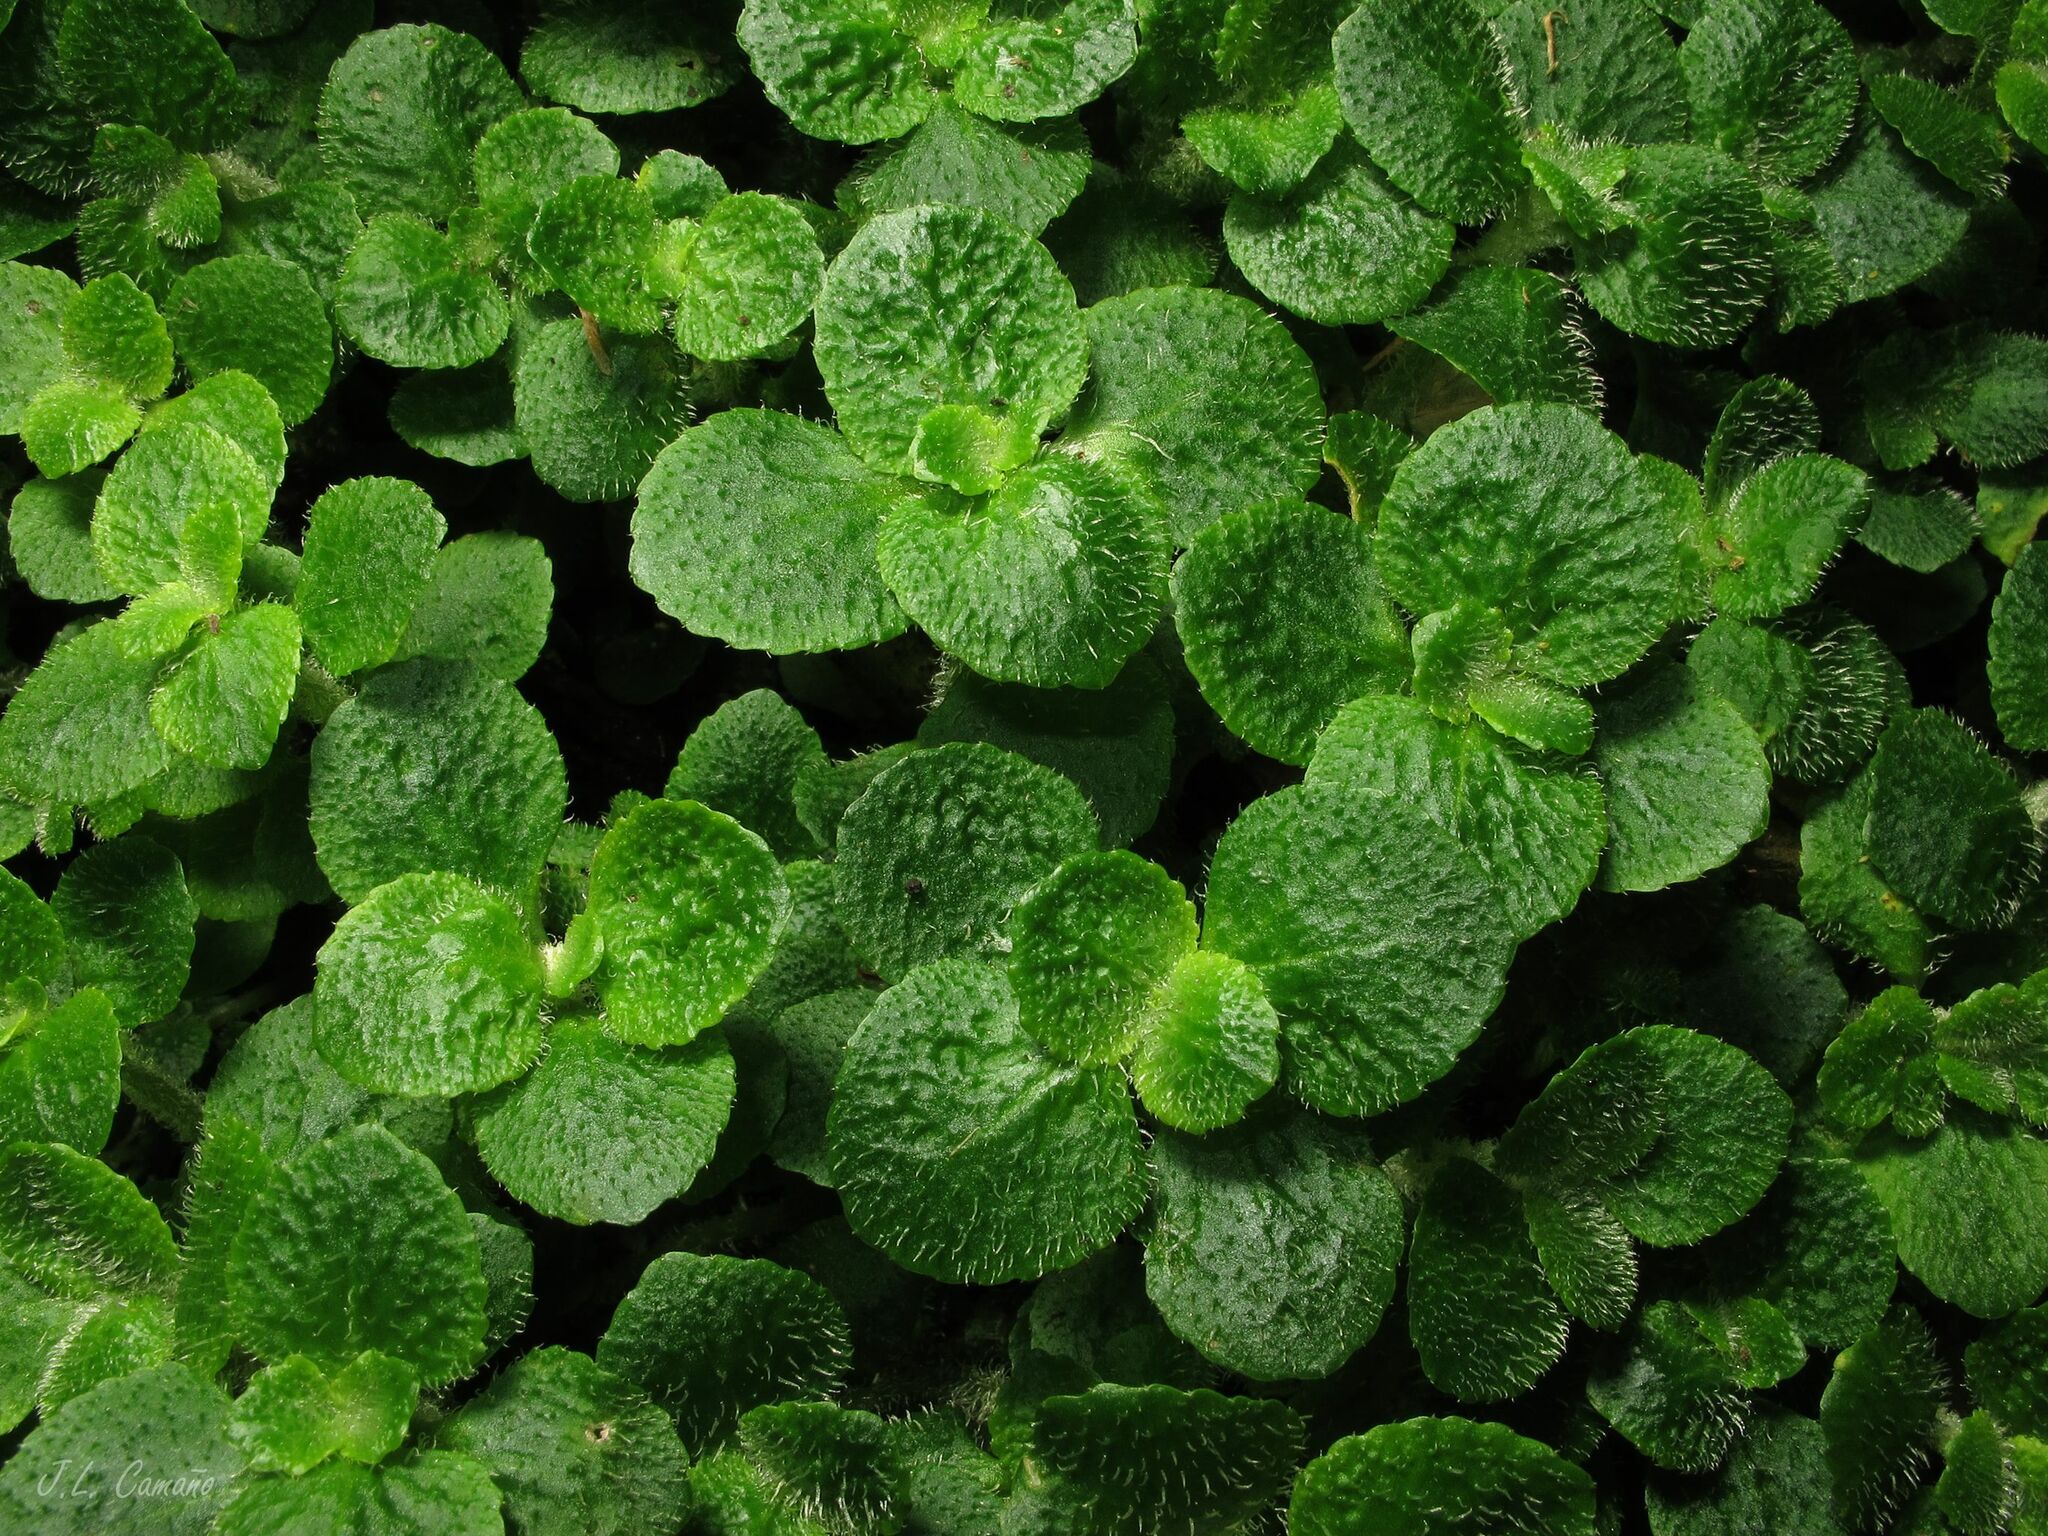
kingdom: Plantae
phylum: Tracheophyta
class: Magnoliopsida
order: Saxifragales
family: Saxifragaceae
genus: Chrysosplenium
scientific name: Chrysosplenium oppositifolium
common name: Opposite-leaved golden-saxifrage
